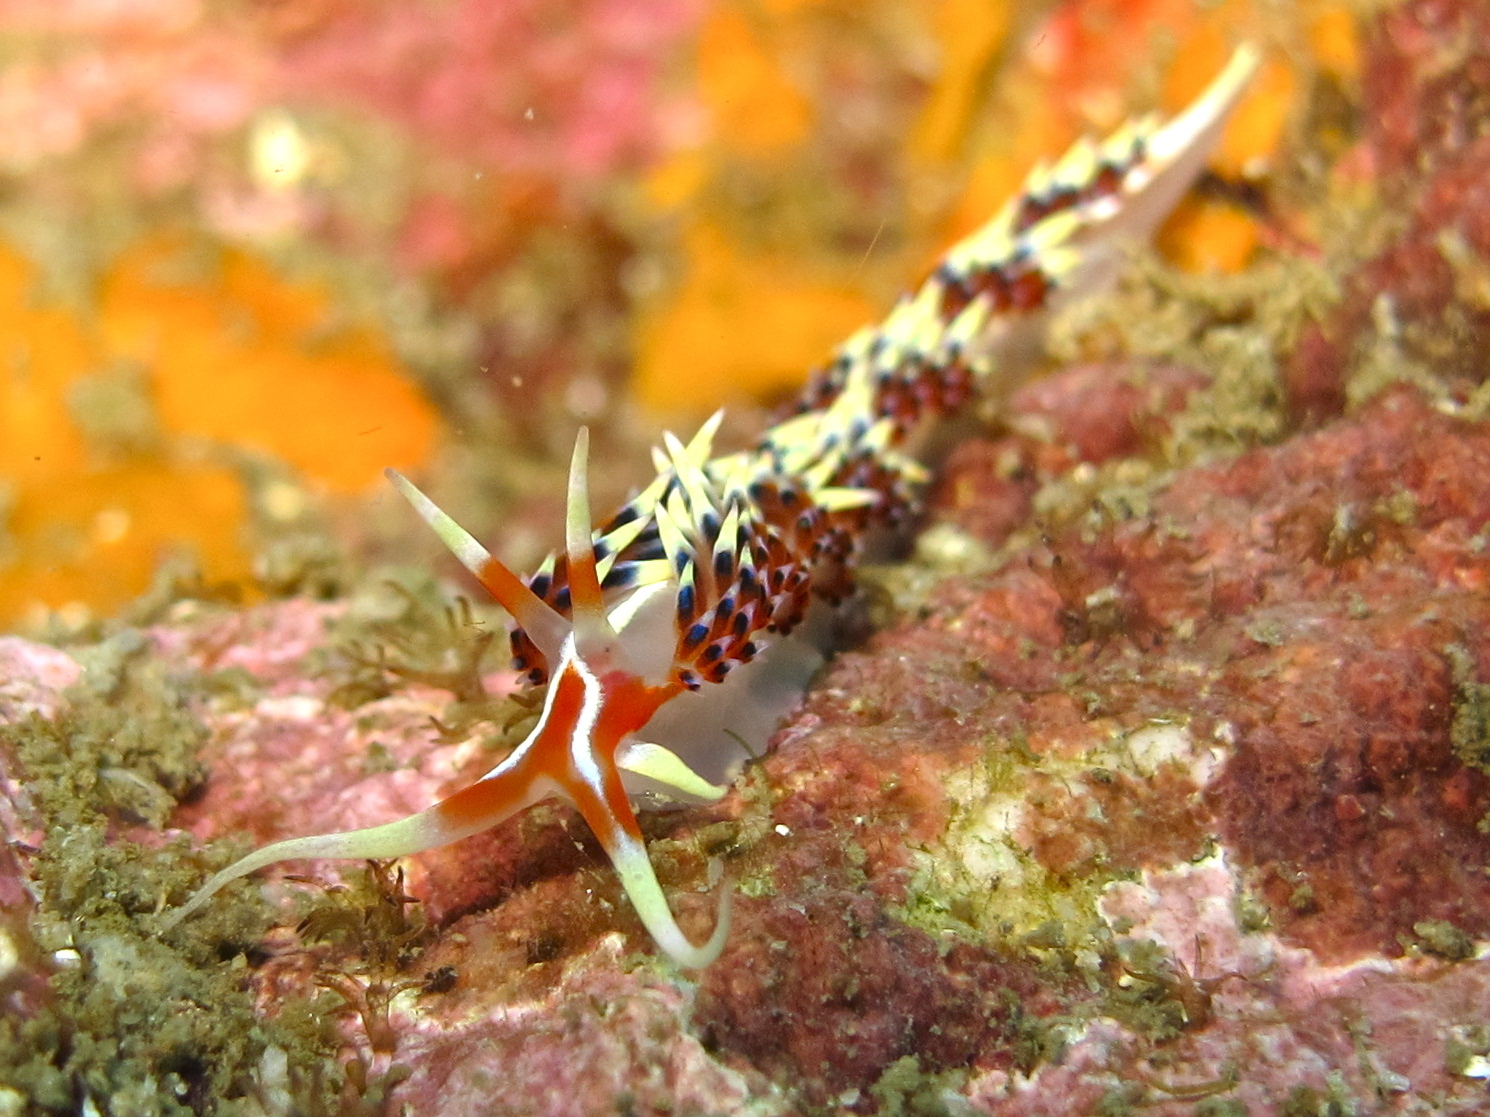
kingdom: Animalia
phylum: Mollusca
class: Gastropoda
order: Nudibranchia
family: Facelinidae
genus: Caloria
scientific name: Caloria indica
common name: Sea slug
